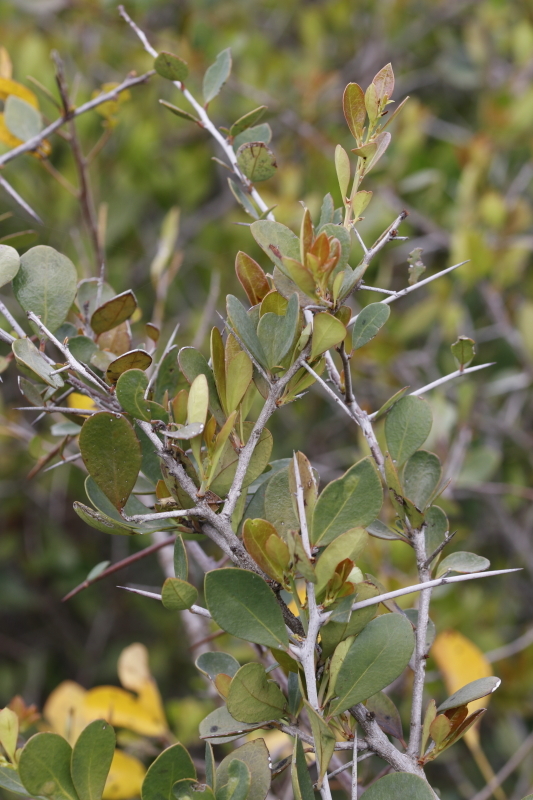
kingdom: Plantae
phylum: Tracheophyta
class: Magnoliopsida
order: Celastrales
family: Celastraceae
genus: Putterlickia
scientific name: Putterlickia pyracantha
